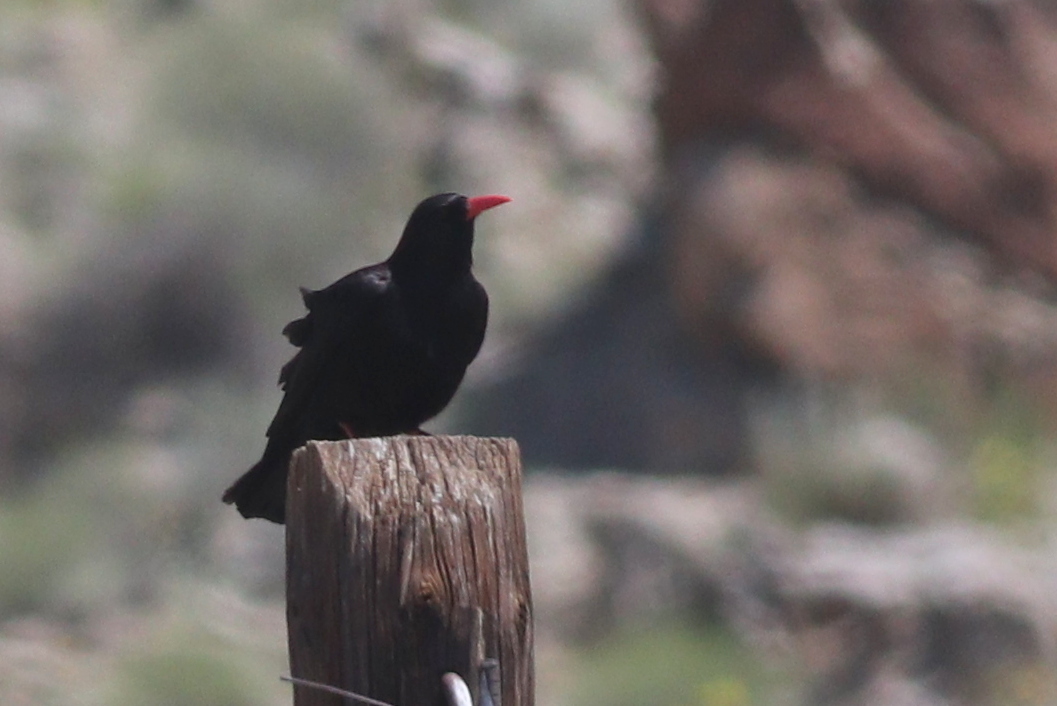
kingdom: Animalia
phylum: Chordata
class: Aves
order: Passeriformes
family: Corvidae
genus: Pyrrhocorax
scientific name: Pyrrhocorax pyrrhocorax
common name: Red-billed chough
